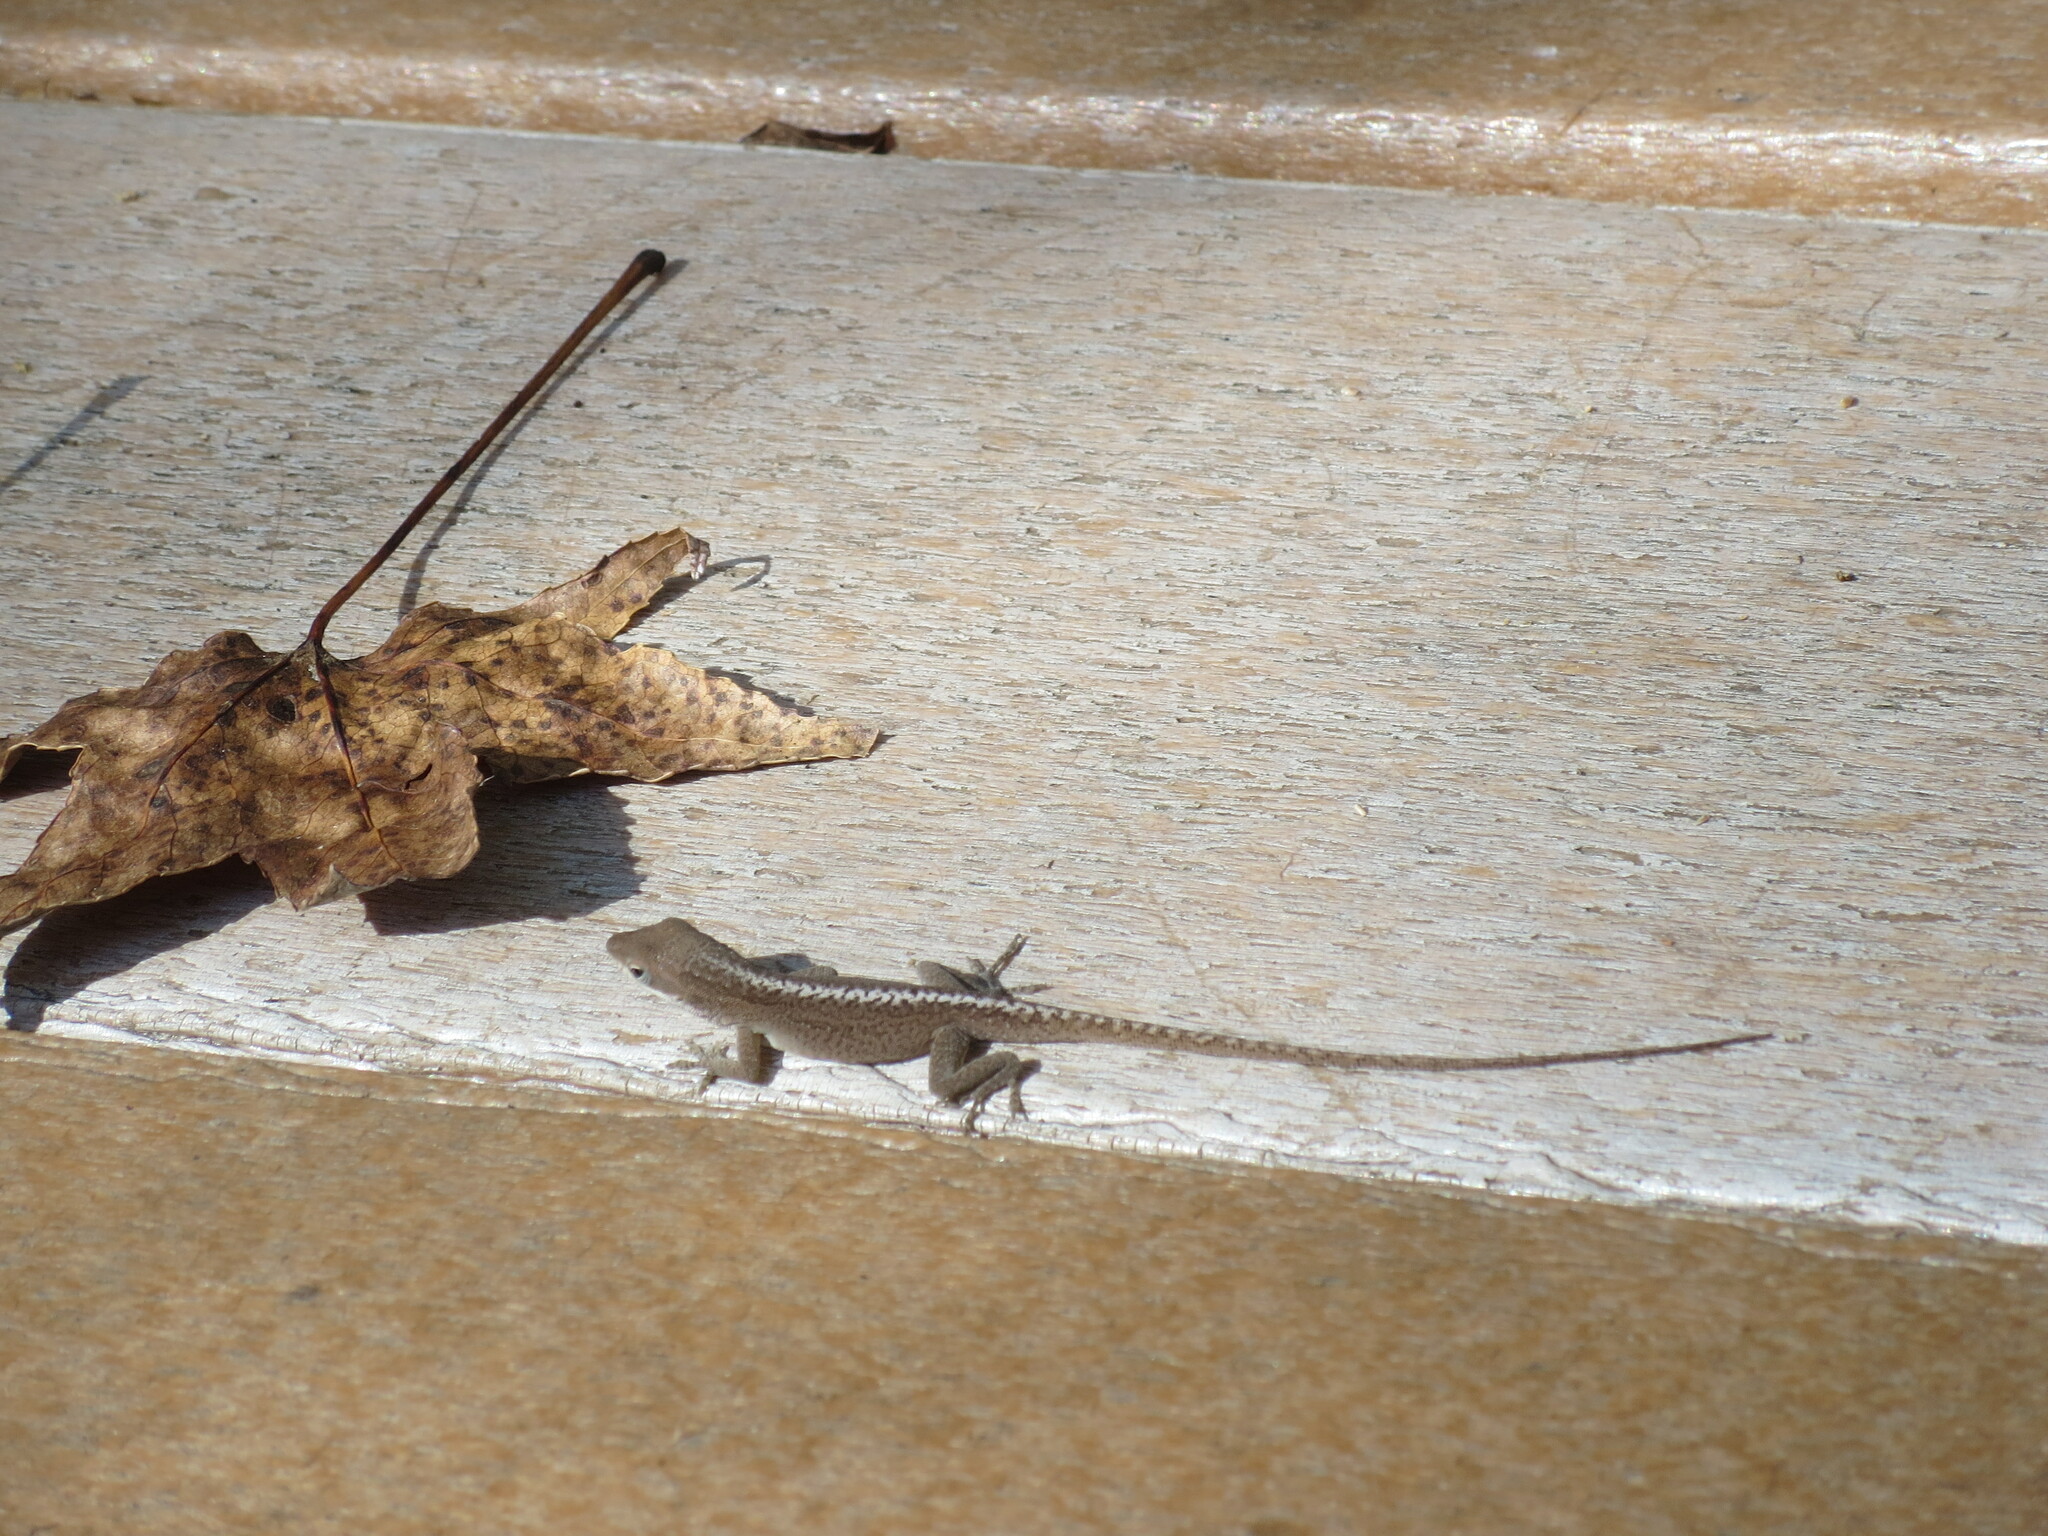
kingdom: Animalia
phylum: Chordata
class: Squamata
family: Dactyloidae
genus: Anolis
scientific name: Anolis carolinensis
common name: Green anole
